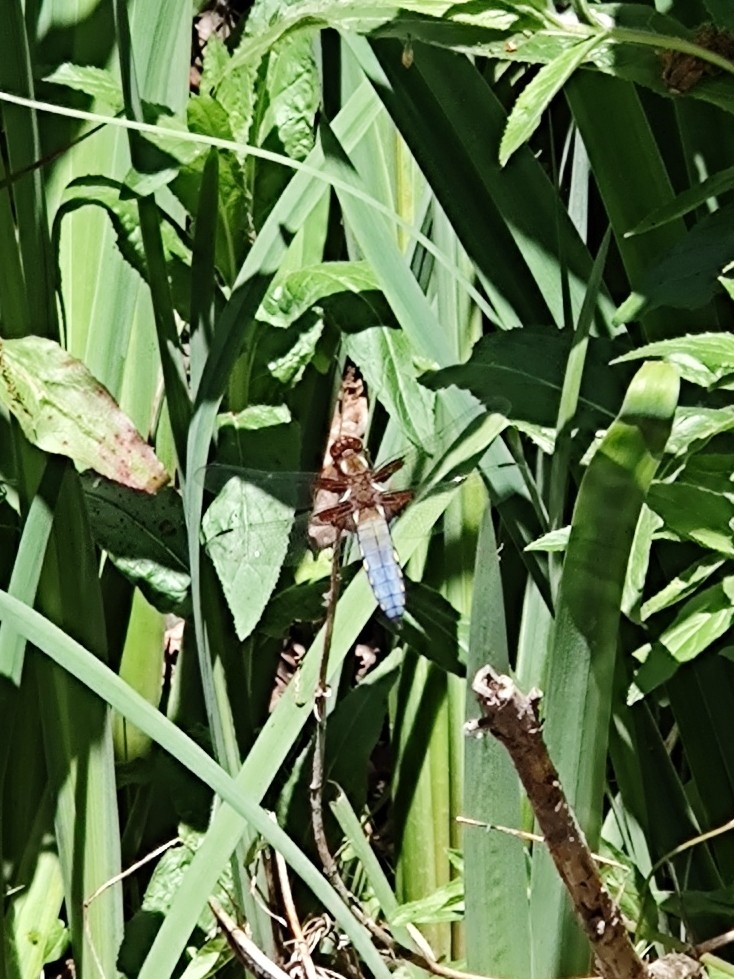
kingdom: Animalia
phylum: Arthropoda
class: Insecta
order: Odonata
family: Libellulidae
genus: Libellula
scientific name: Libellula depressa
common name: Broad-bodied chaser
